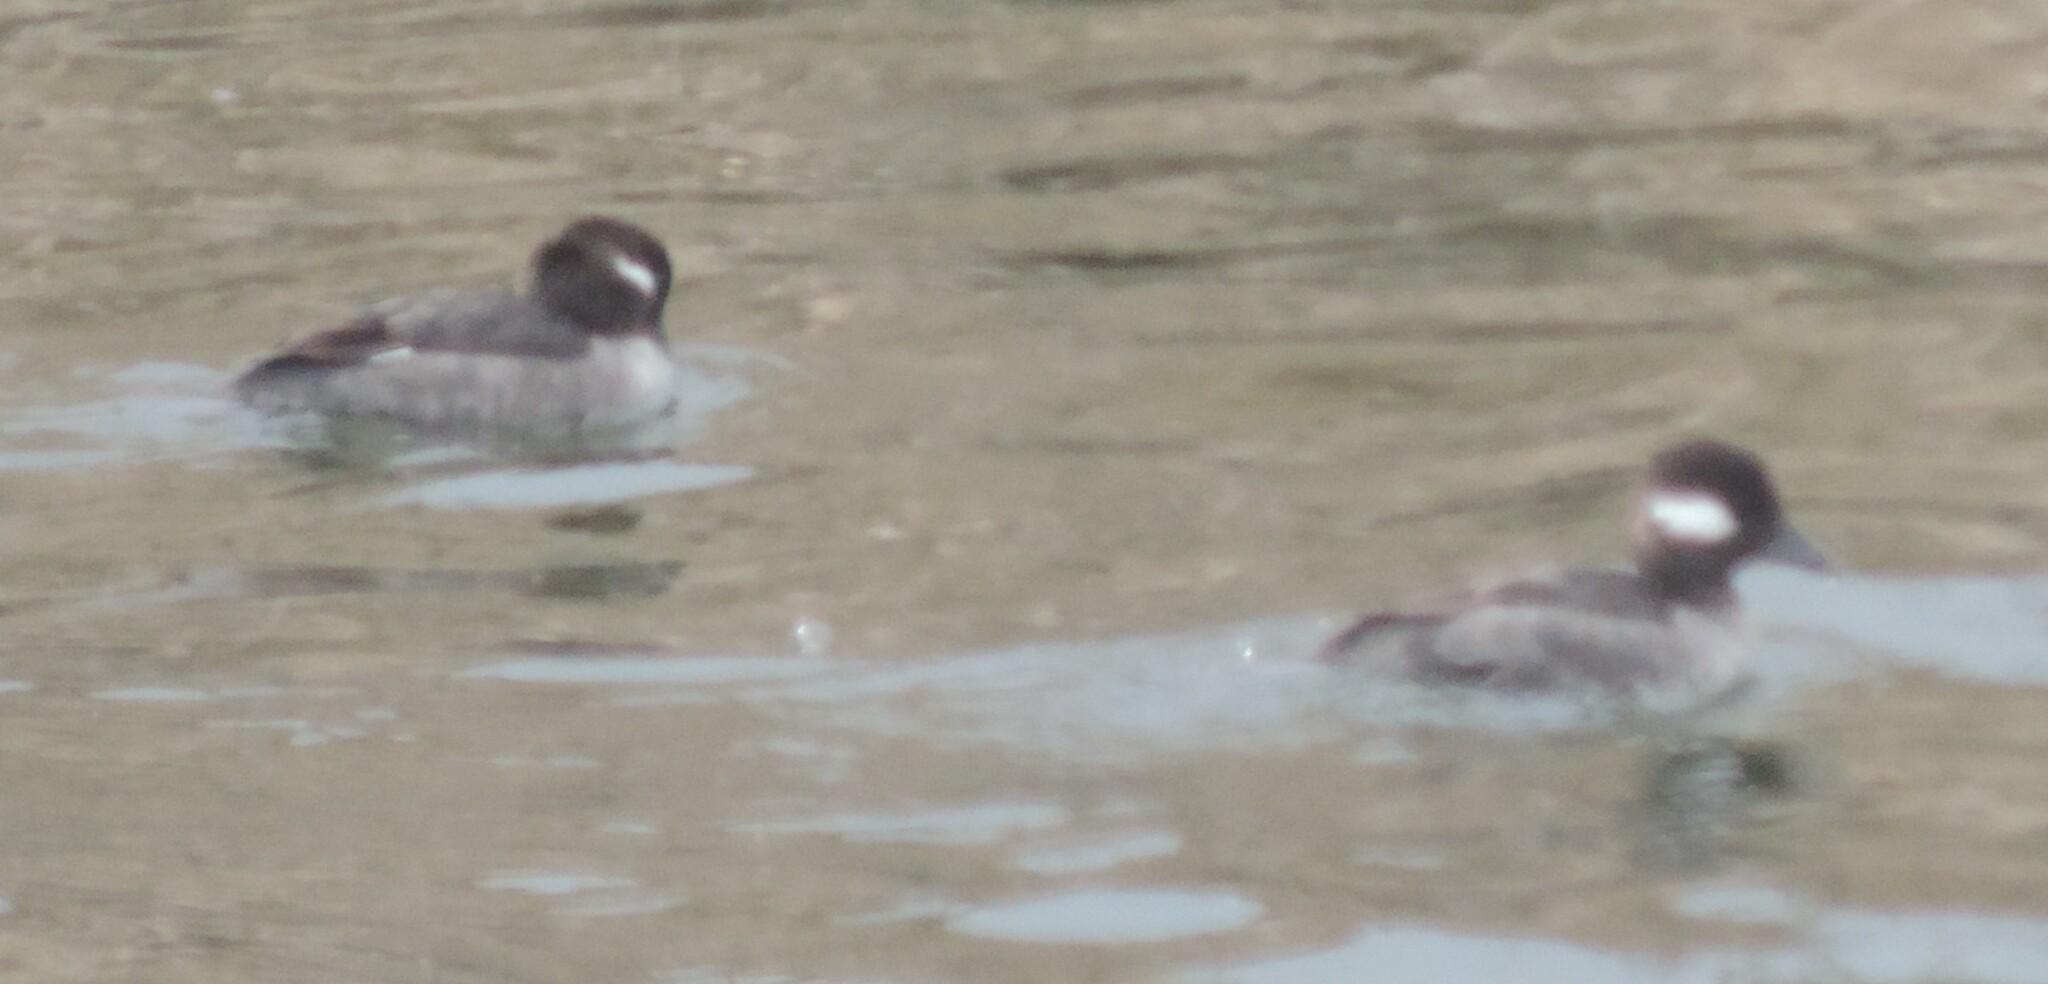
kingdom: Animalia
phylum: Chordata
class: Aves
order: Anseriformes
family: Anatidae
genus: Bucephala
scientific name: Bucephala albeola
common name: Bufflehead
